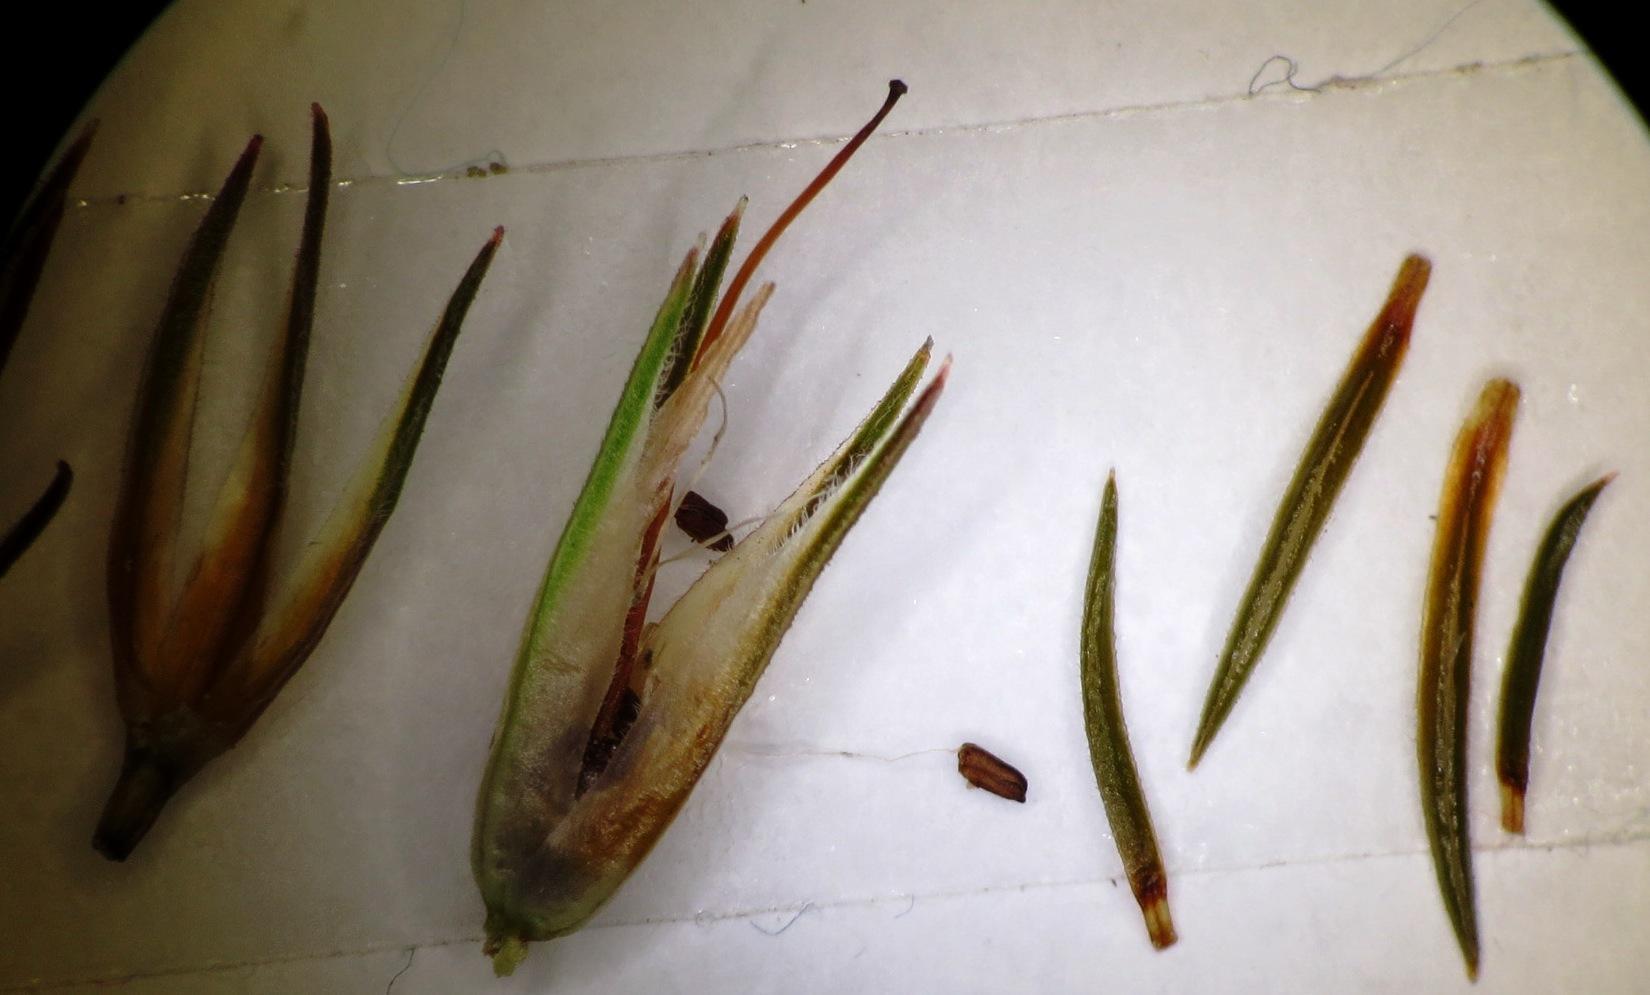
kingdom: Plantae
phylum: Tracheophyta
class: Magnoliopsida
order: Ericales
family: Ericaceae
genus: Erica
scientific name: Erica vallis-gratiae
